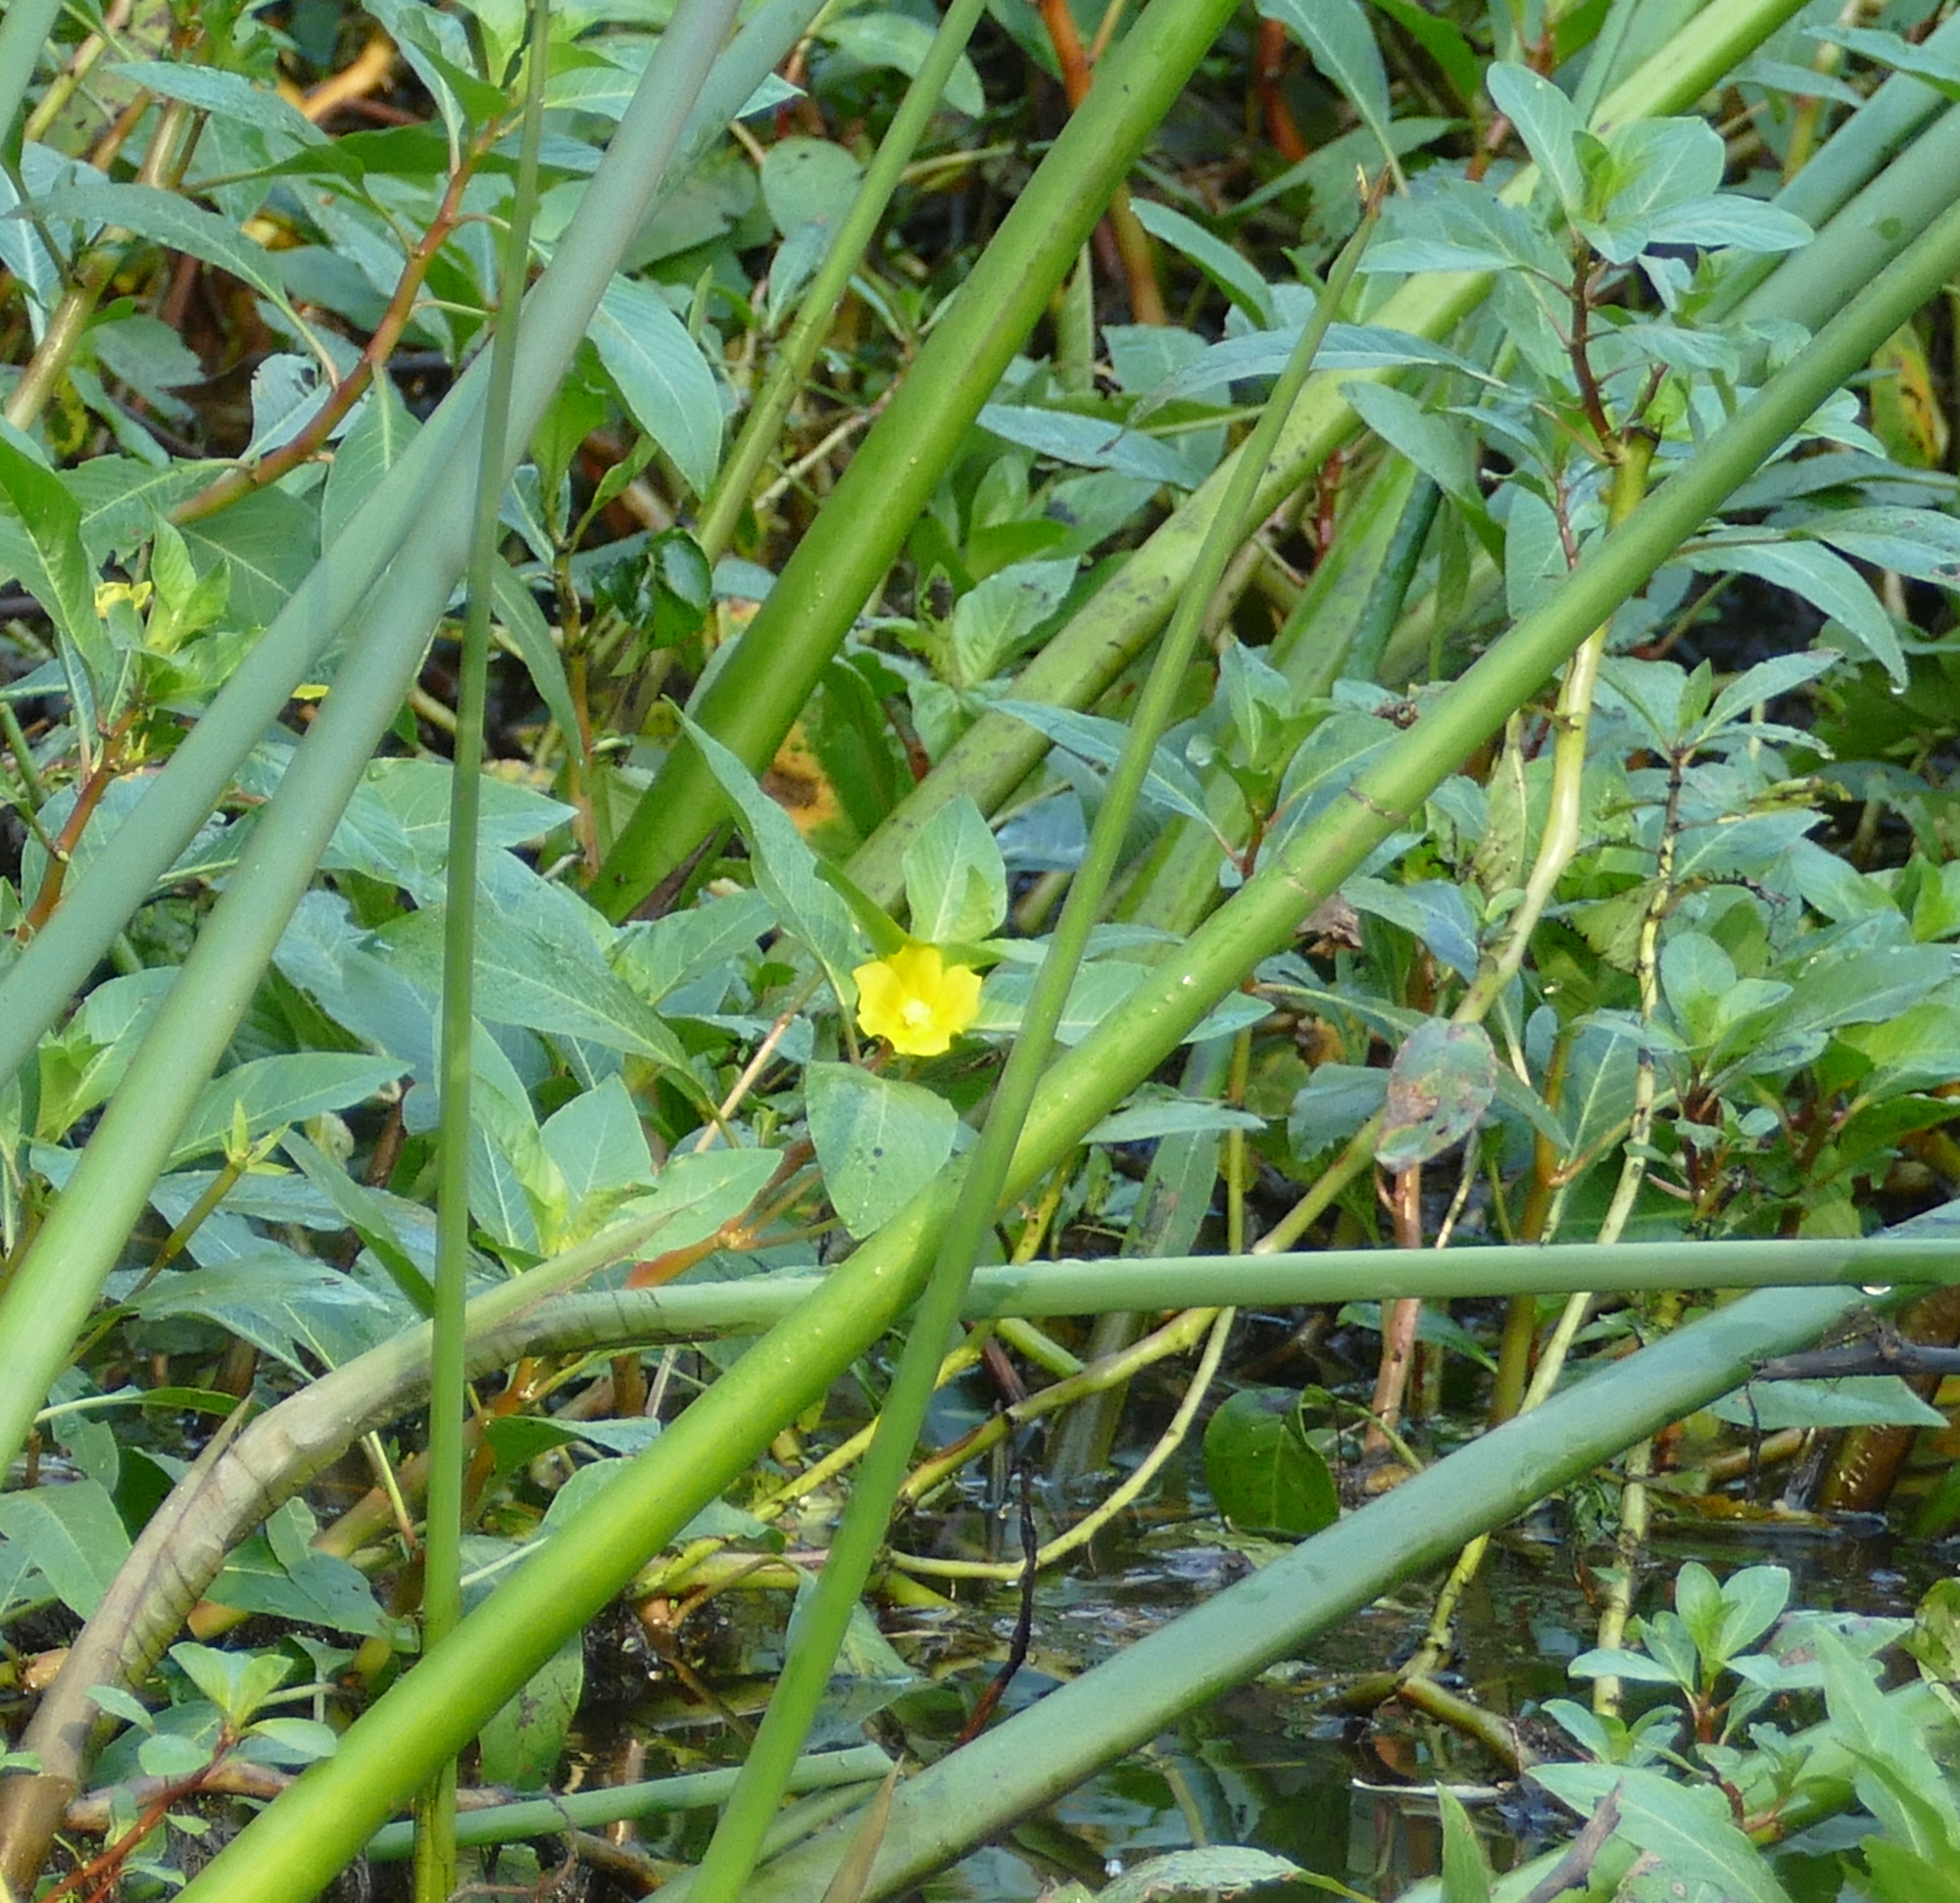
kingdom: Plantae
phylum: Tracheophyta
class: Magnoliopsida
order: Myrtales
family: Onagraceae
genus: Ludwigia
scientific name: Ludwigia peploides
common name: Floating primrose-willow
